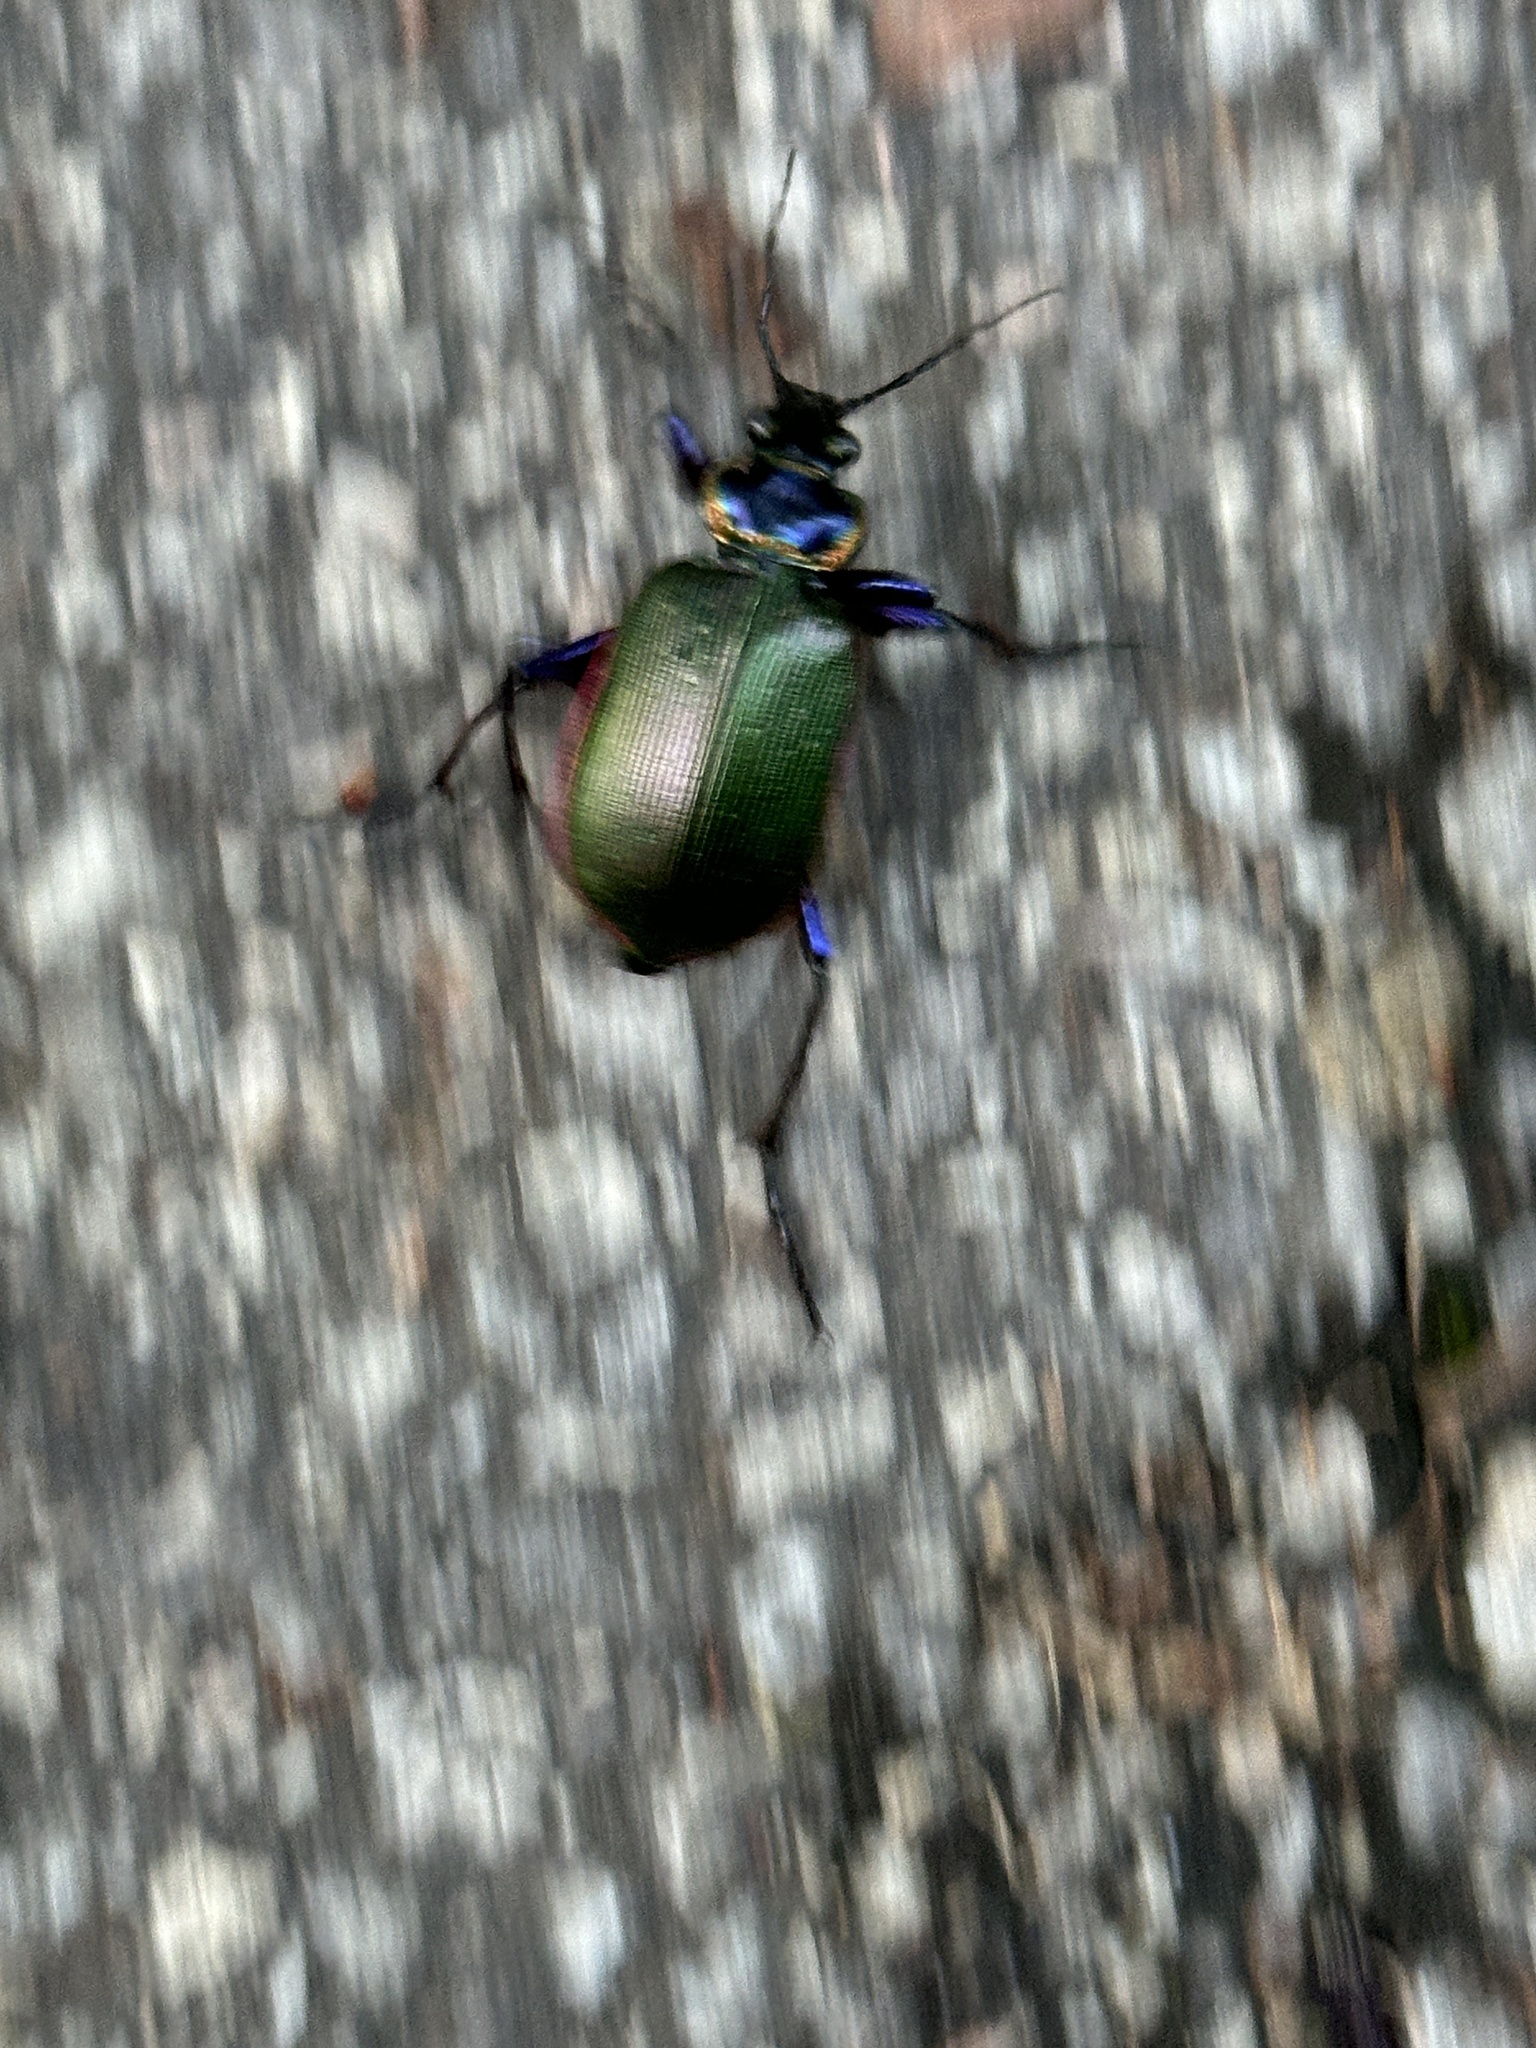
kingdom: Animalia
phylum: Arthropoda
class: Insecta
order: Coleoptera
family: Carabidae
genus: Calosoma
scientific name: Calosoma scrutator
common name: Fiery searcher beetle
